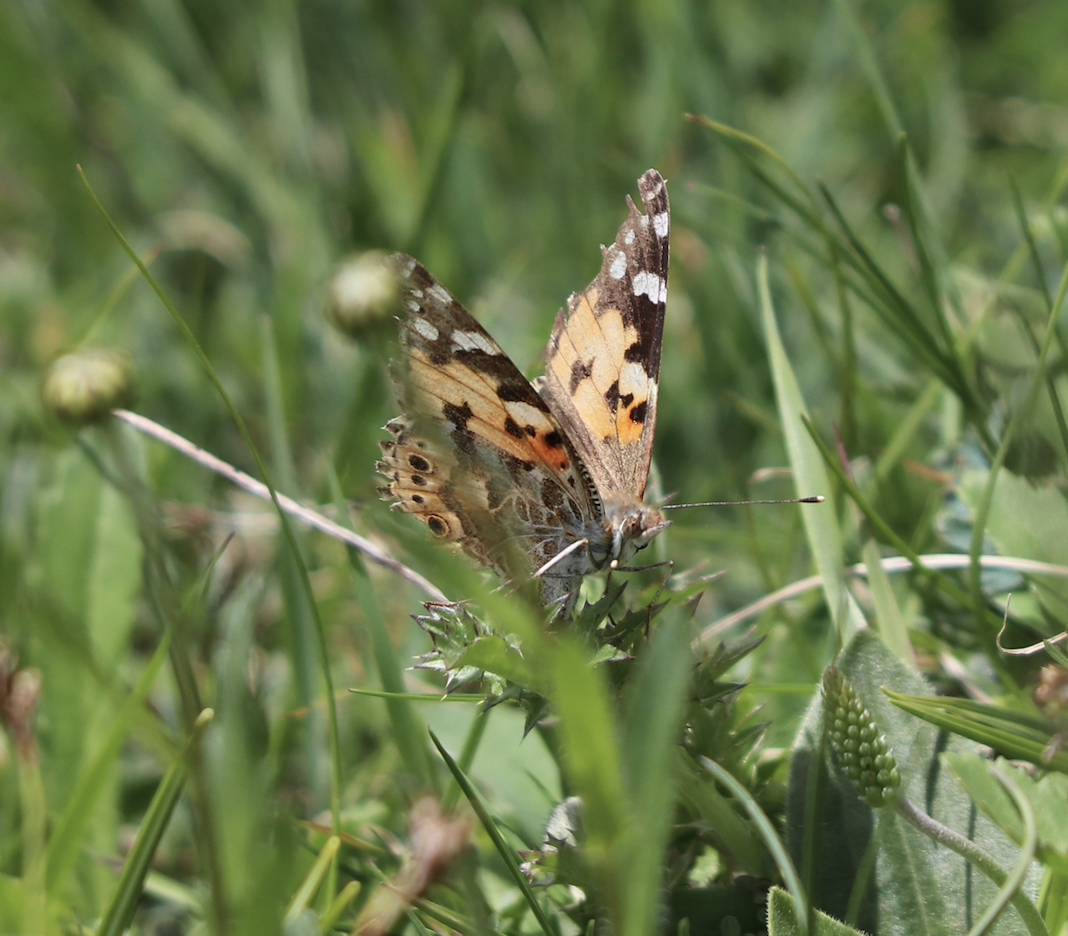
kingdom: Animalia
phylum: Arthropoda
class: Insecta
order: Lepidoptera
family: Nymphalidae
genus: Vanessa
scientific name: Vanessa cardui
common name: Painted lady
